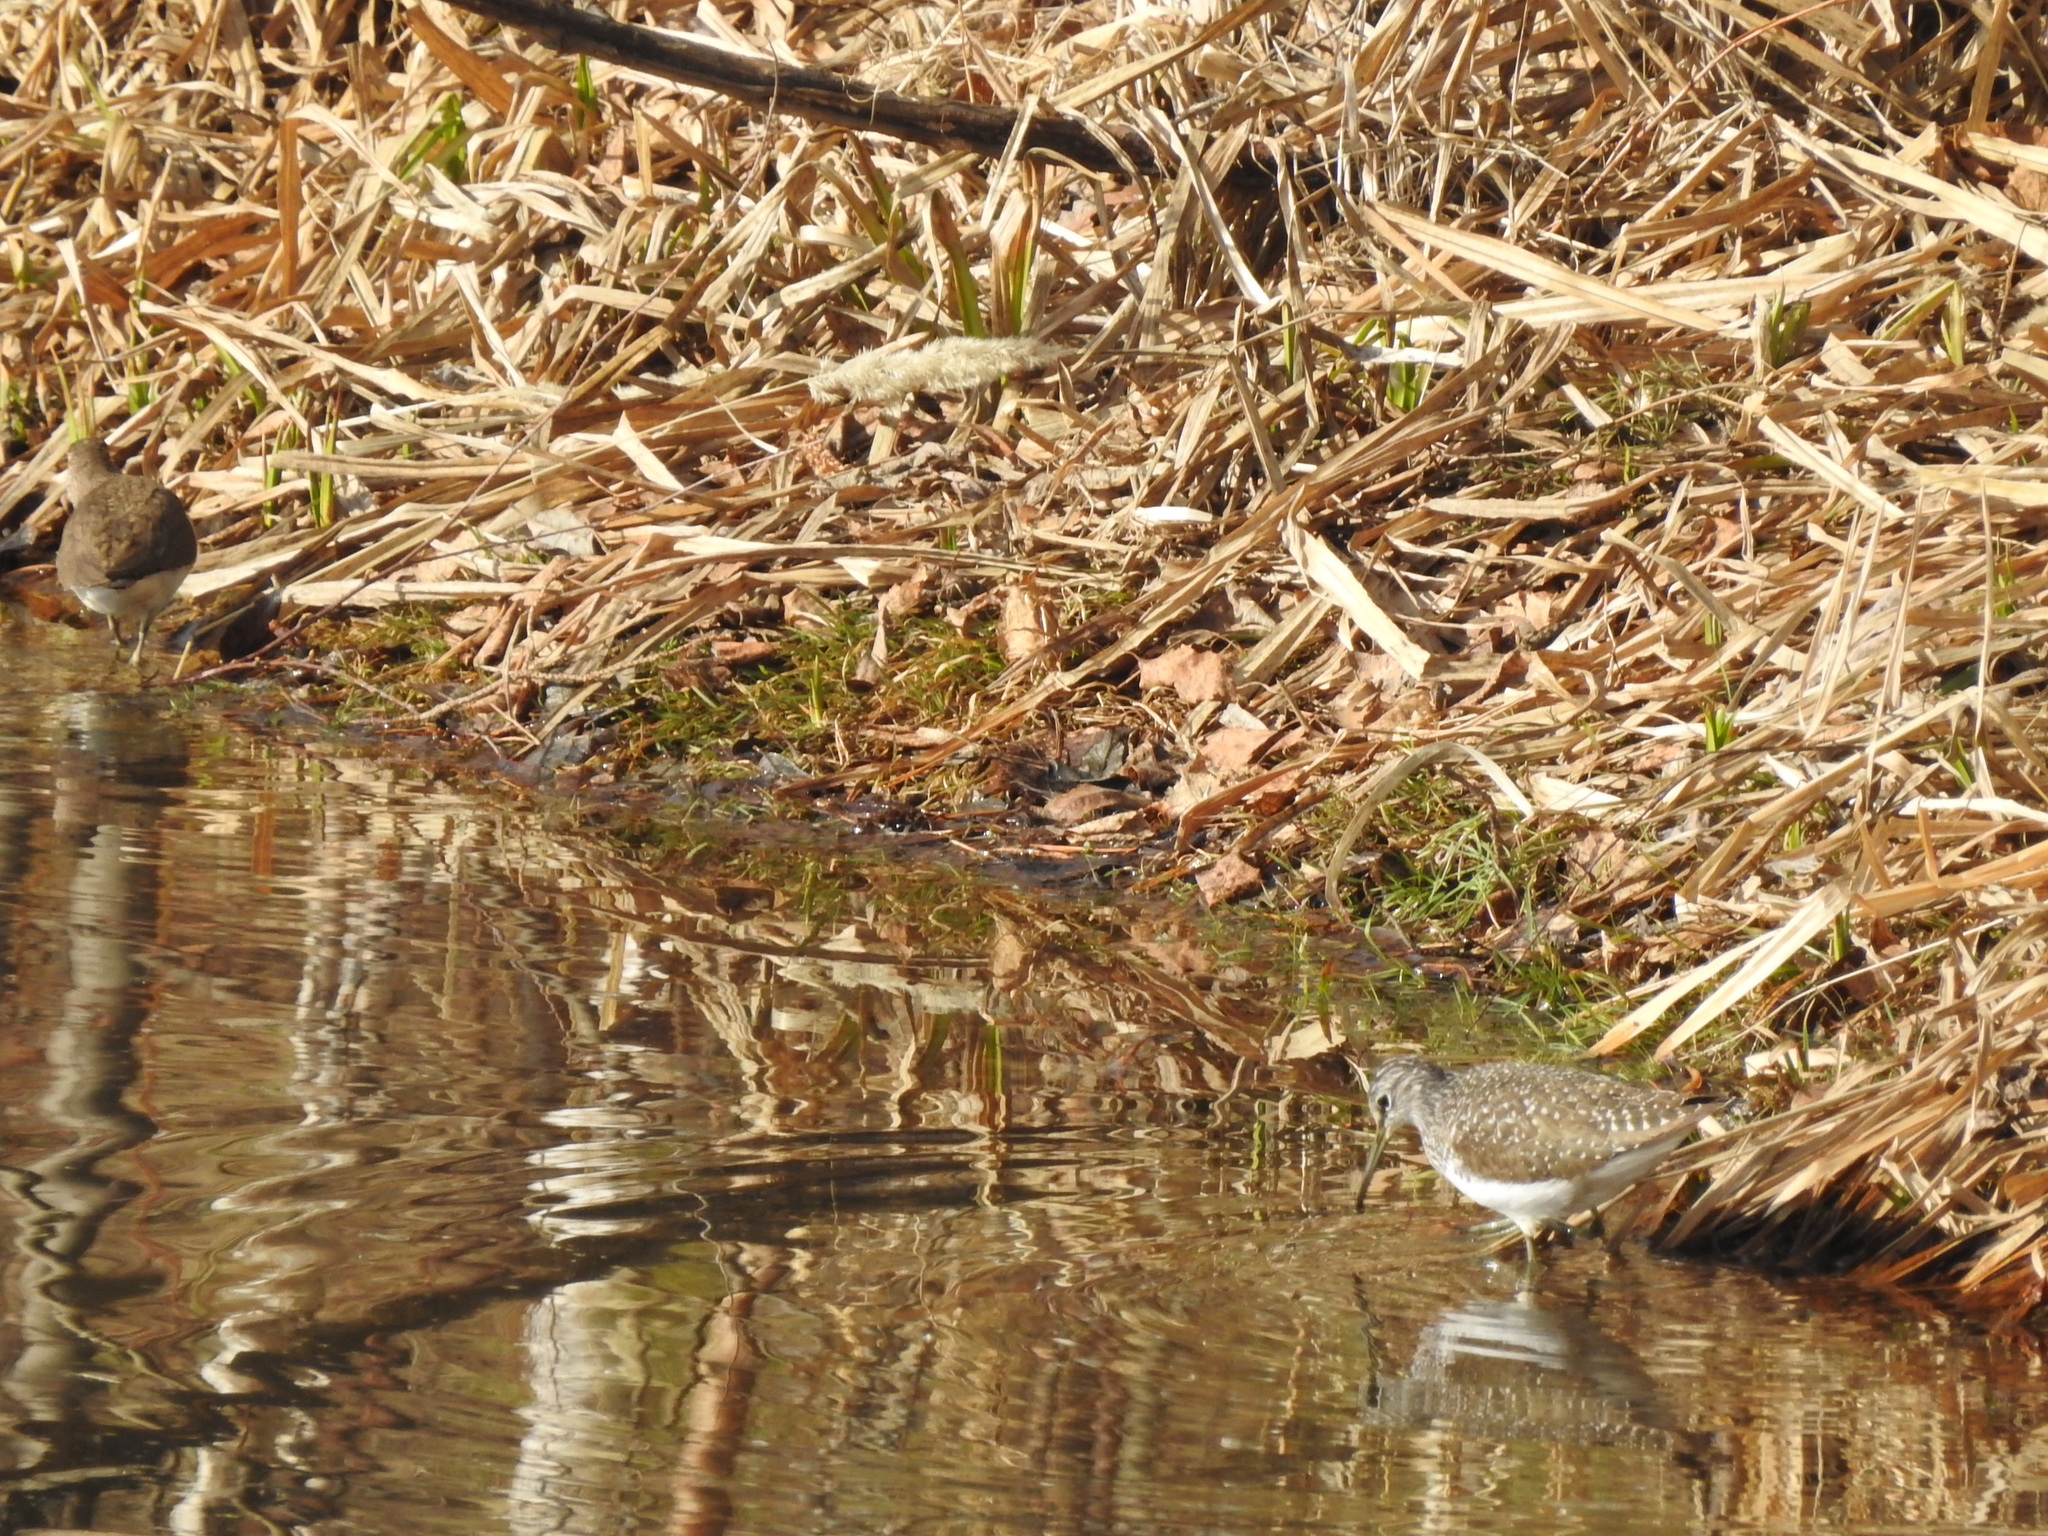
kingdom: Animalia
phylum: Chordata
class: Aves
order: Charadriiformes
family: Scolopacidae
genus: Tringa
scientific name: Tringa ochropus
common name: Green sandpiper
